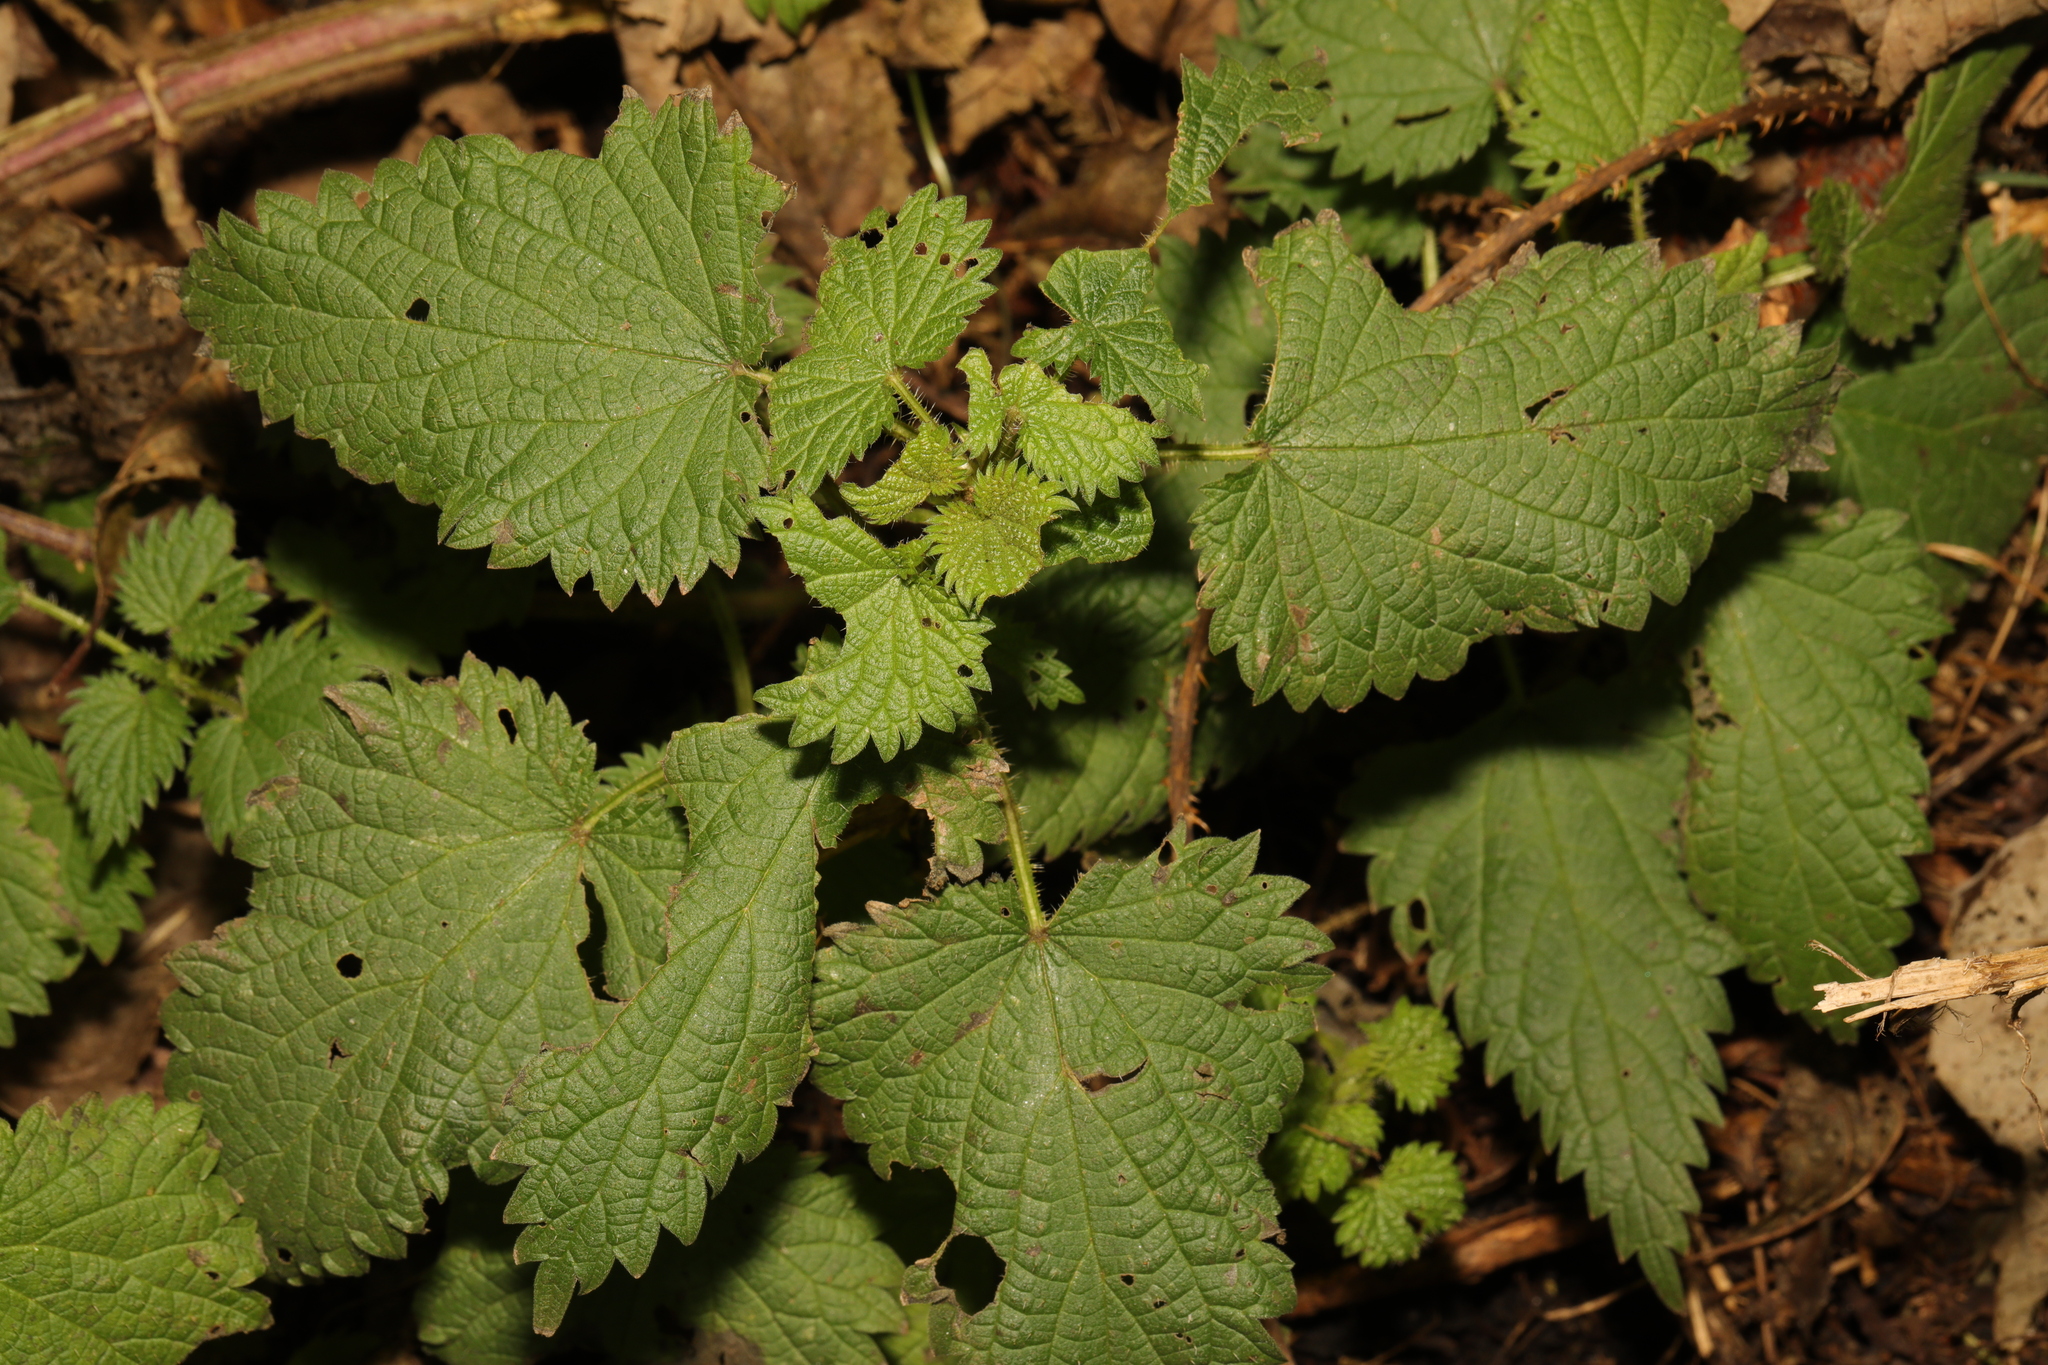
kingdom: Plantae
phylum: Tracheophyta
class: Magnoliopsida
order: Rosales
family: Urticaceae
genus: Urtica
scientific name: Urtica dioica
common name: Common nettle
